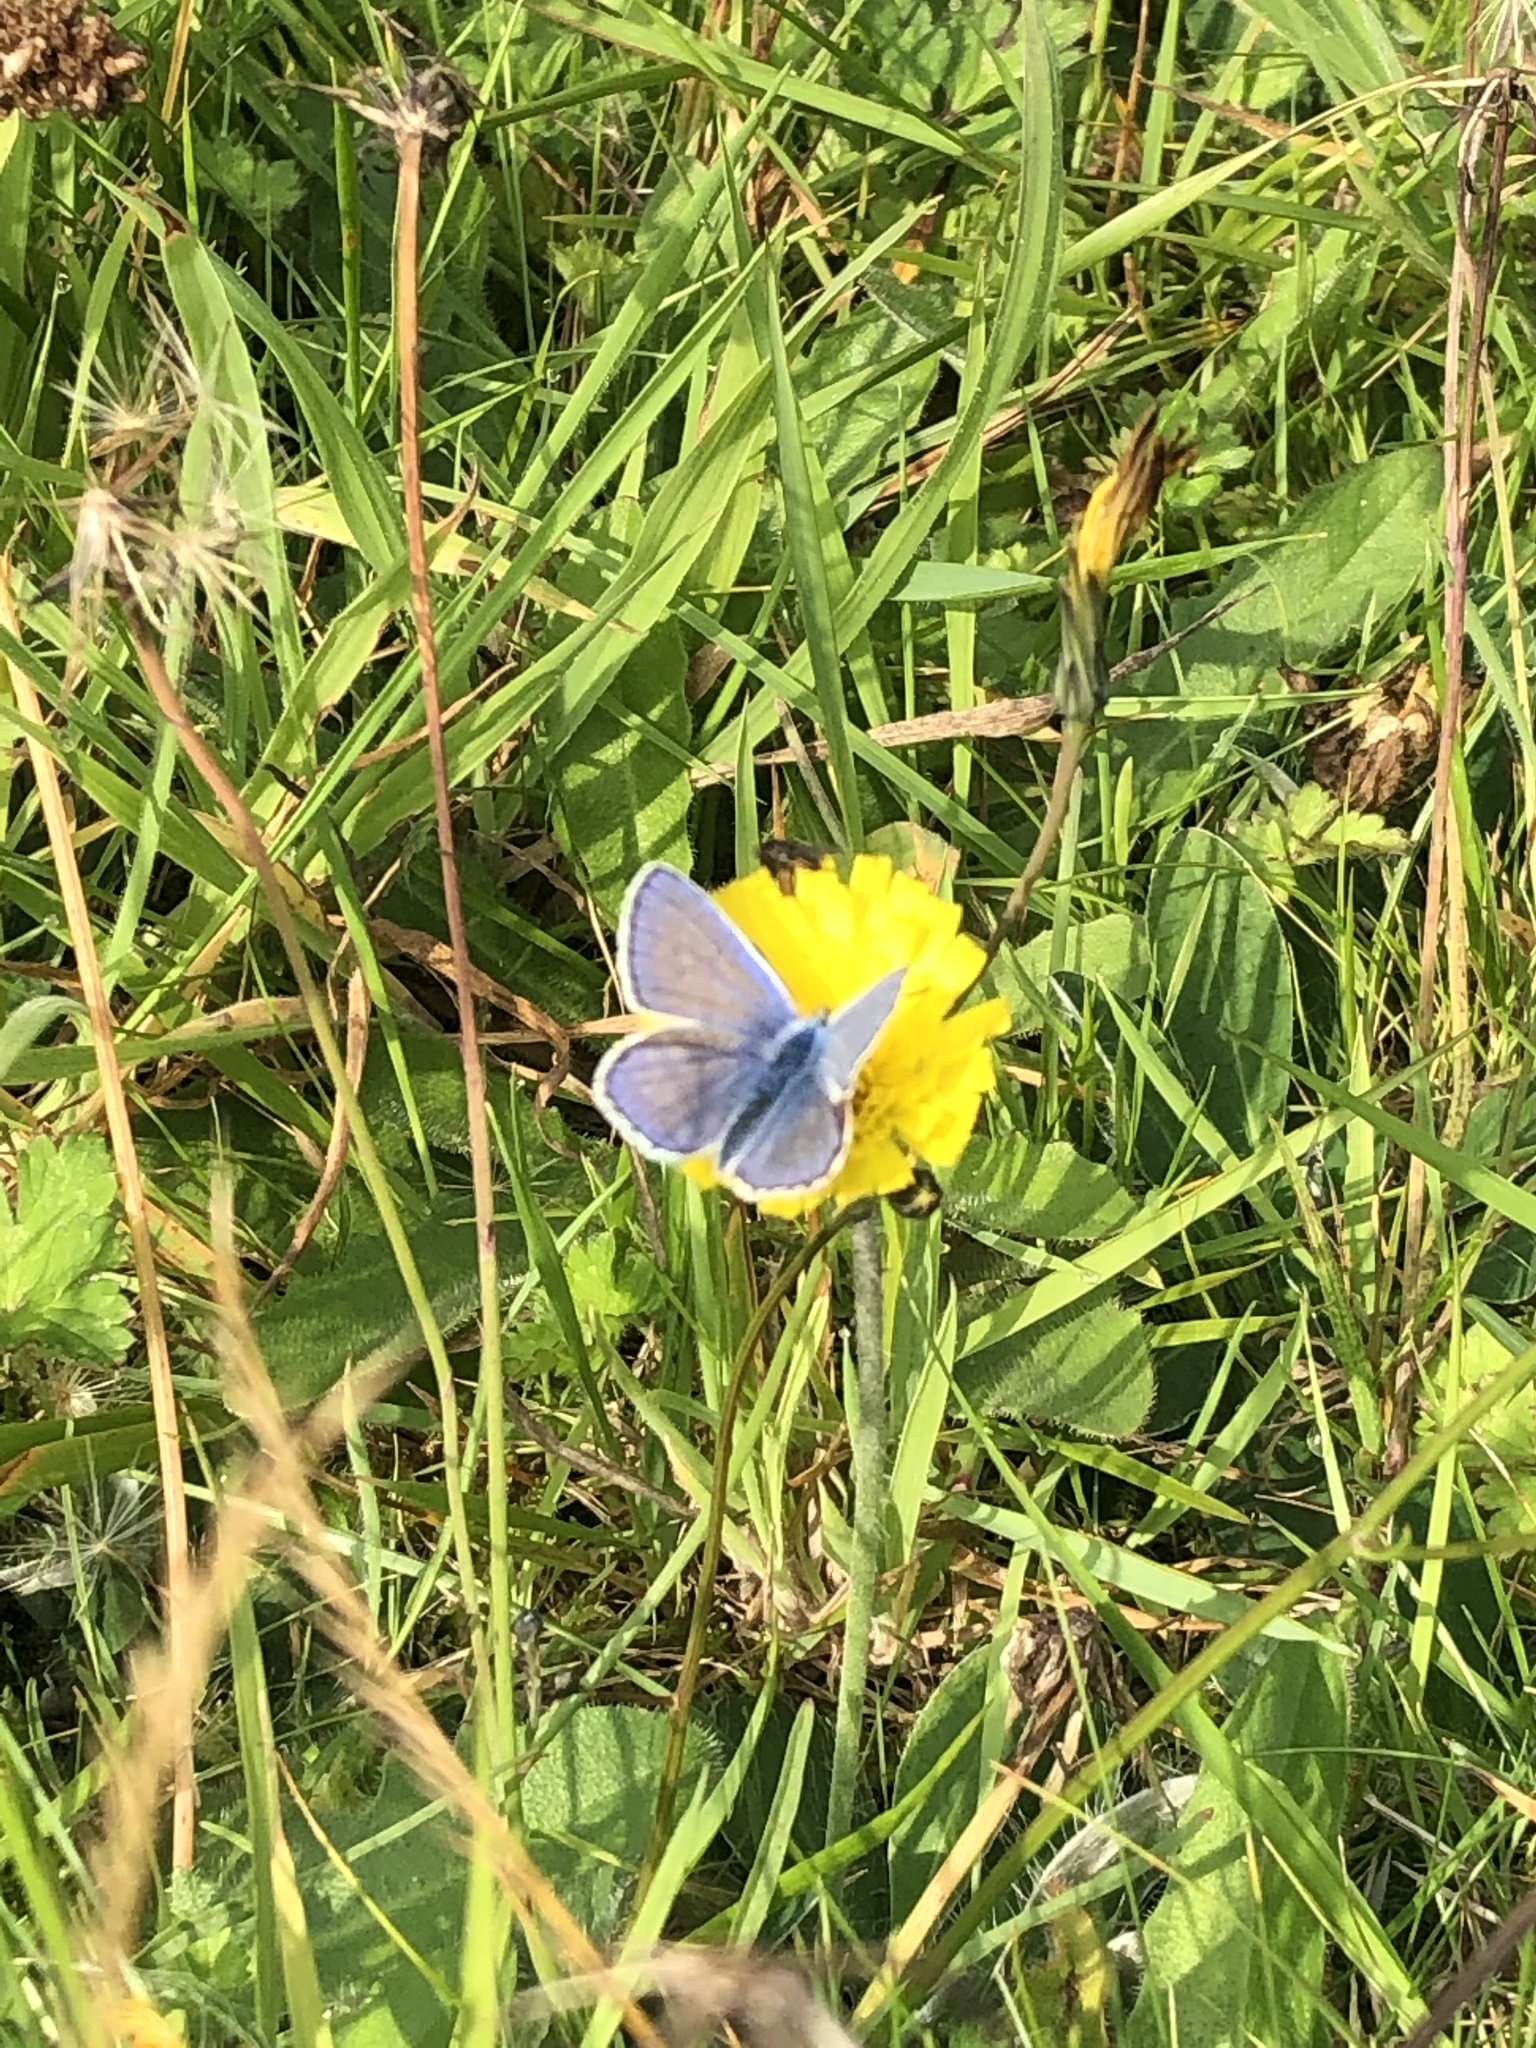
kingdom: Animalia
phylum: Arthropoda
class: Insecta
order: Lepidoptera
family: Lycaenidae
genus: Polyommatus
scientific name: Polyommatus icarus
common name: Common blue
